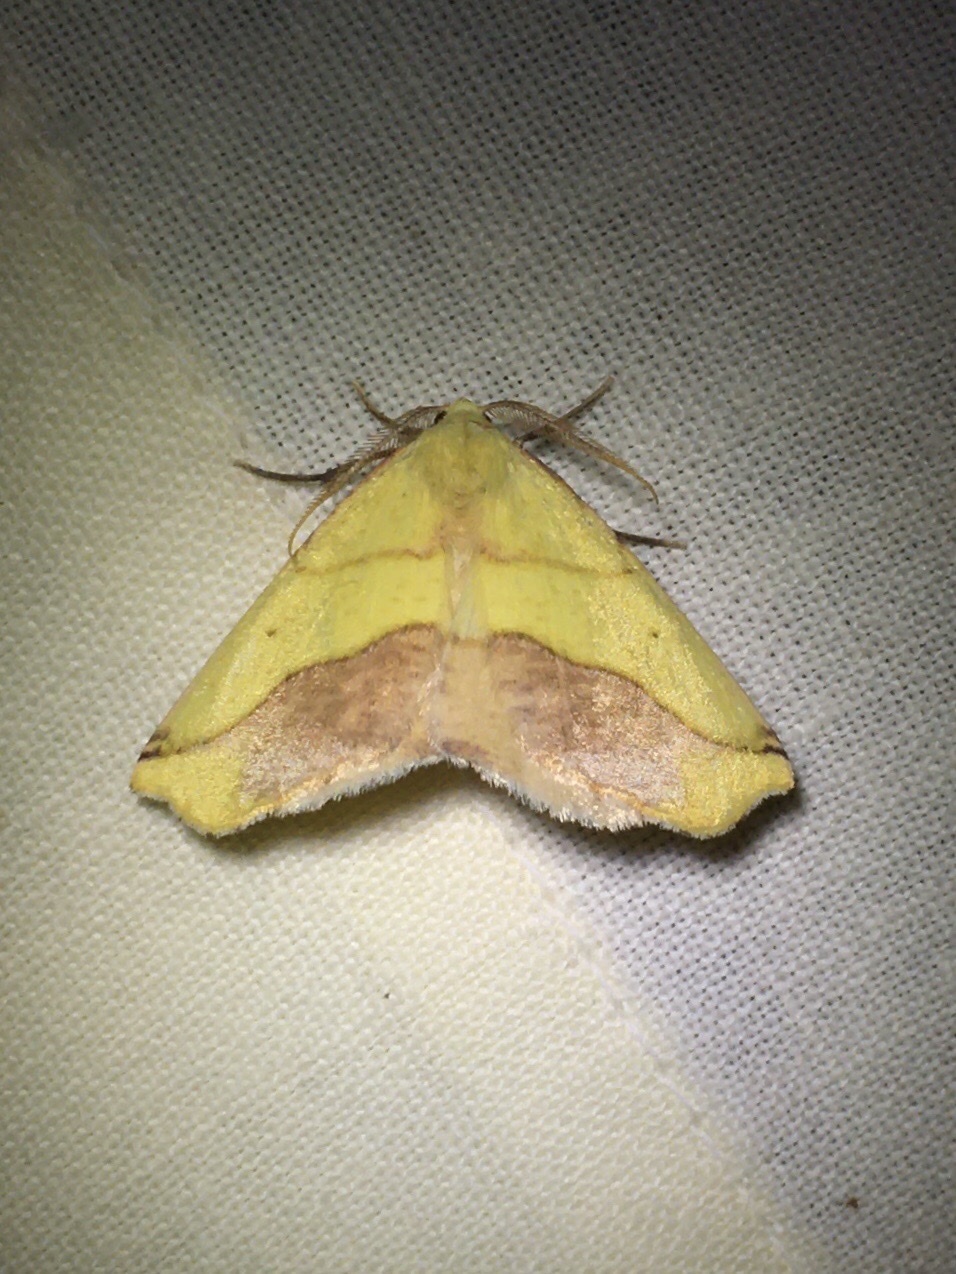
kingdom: Animalia
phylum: Arthropoda
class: Insecta
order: Lepidoptera
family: Geometridae
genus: Sicya
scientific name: Sicya macularia
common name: Sharp-lined yellow
